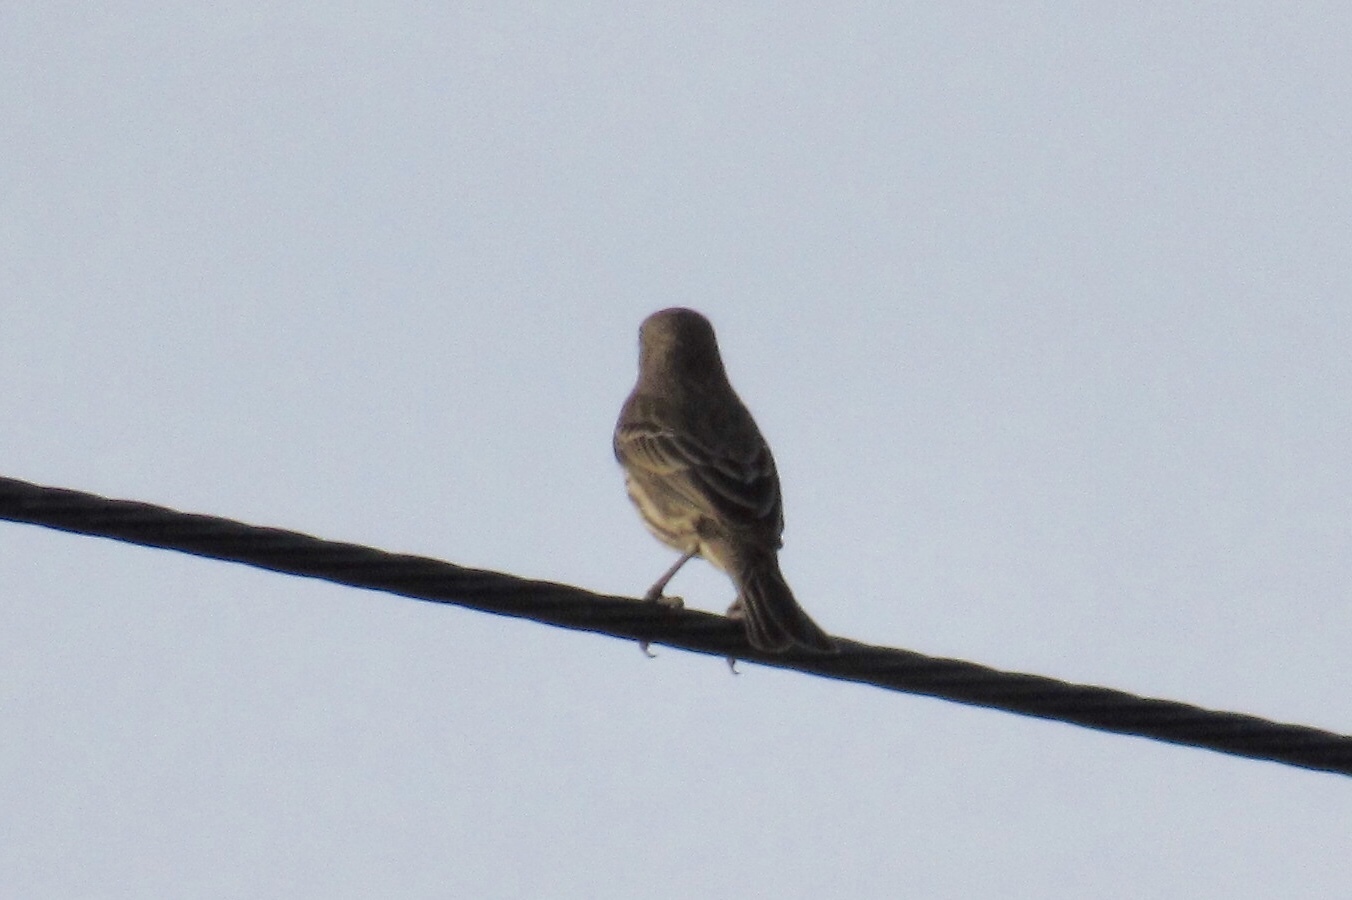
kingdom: Animalia
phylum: Chordata
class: Aves
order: Passeriformes
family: Fringillidae
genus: Haemorhous
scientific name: Haemorhous mexicanus
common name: House finch
